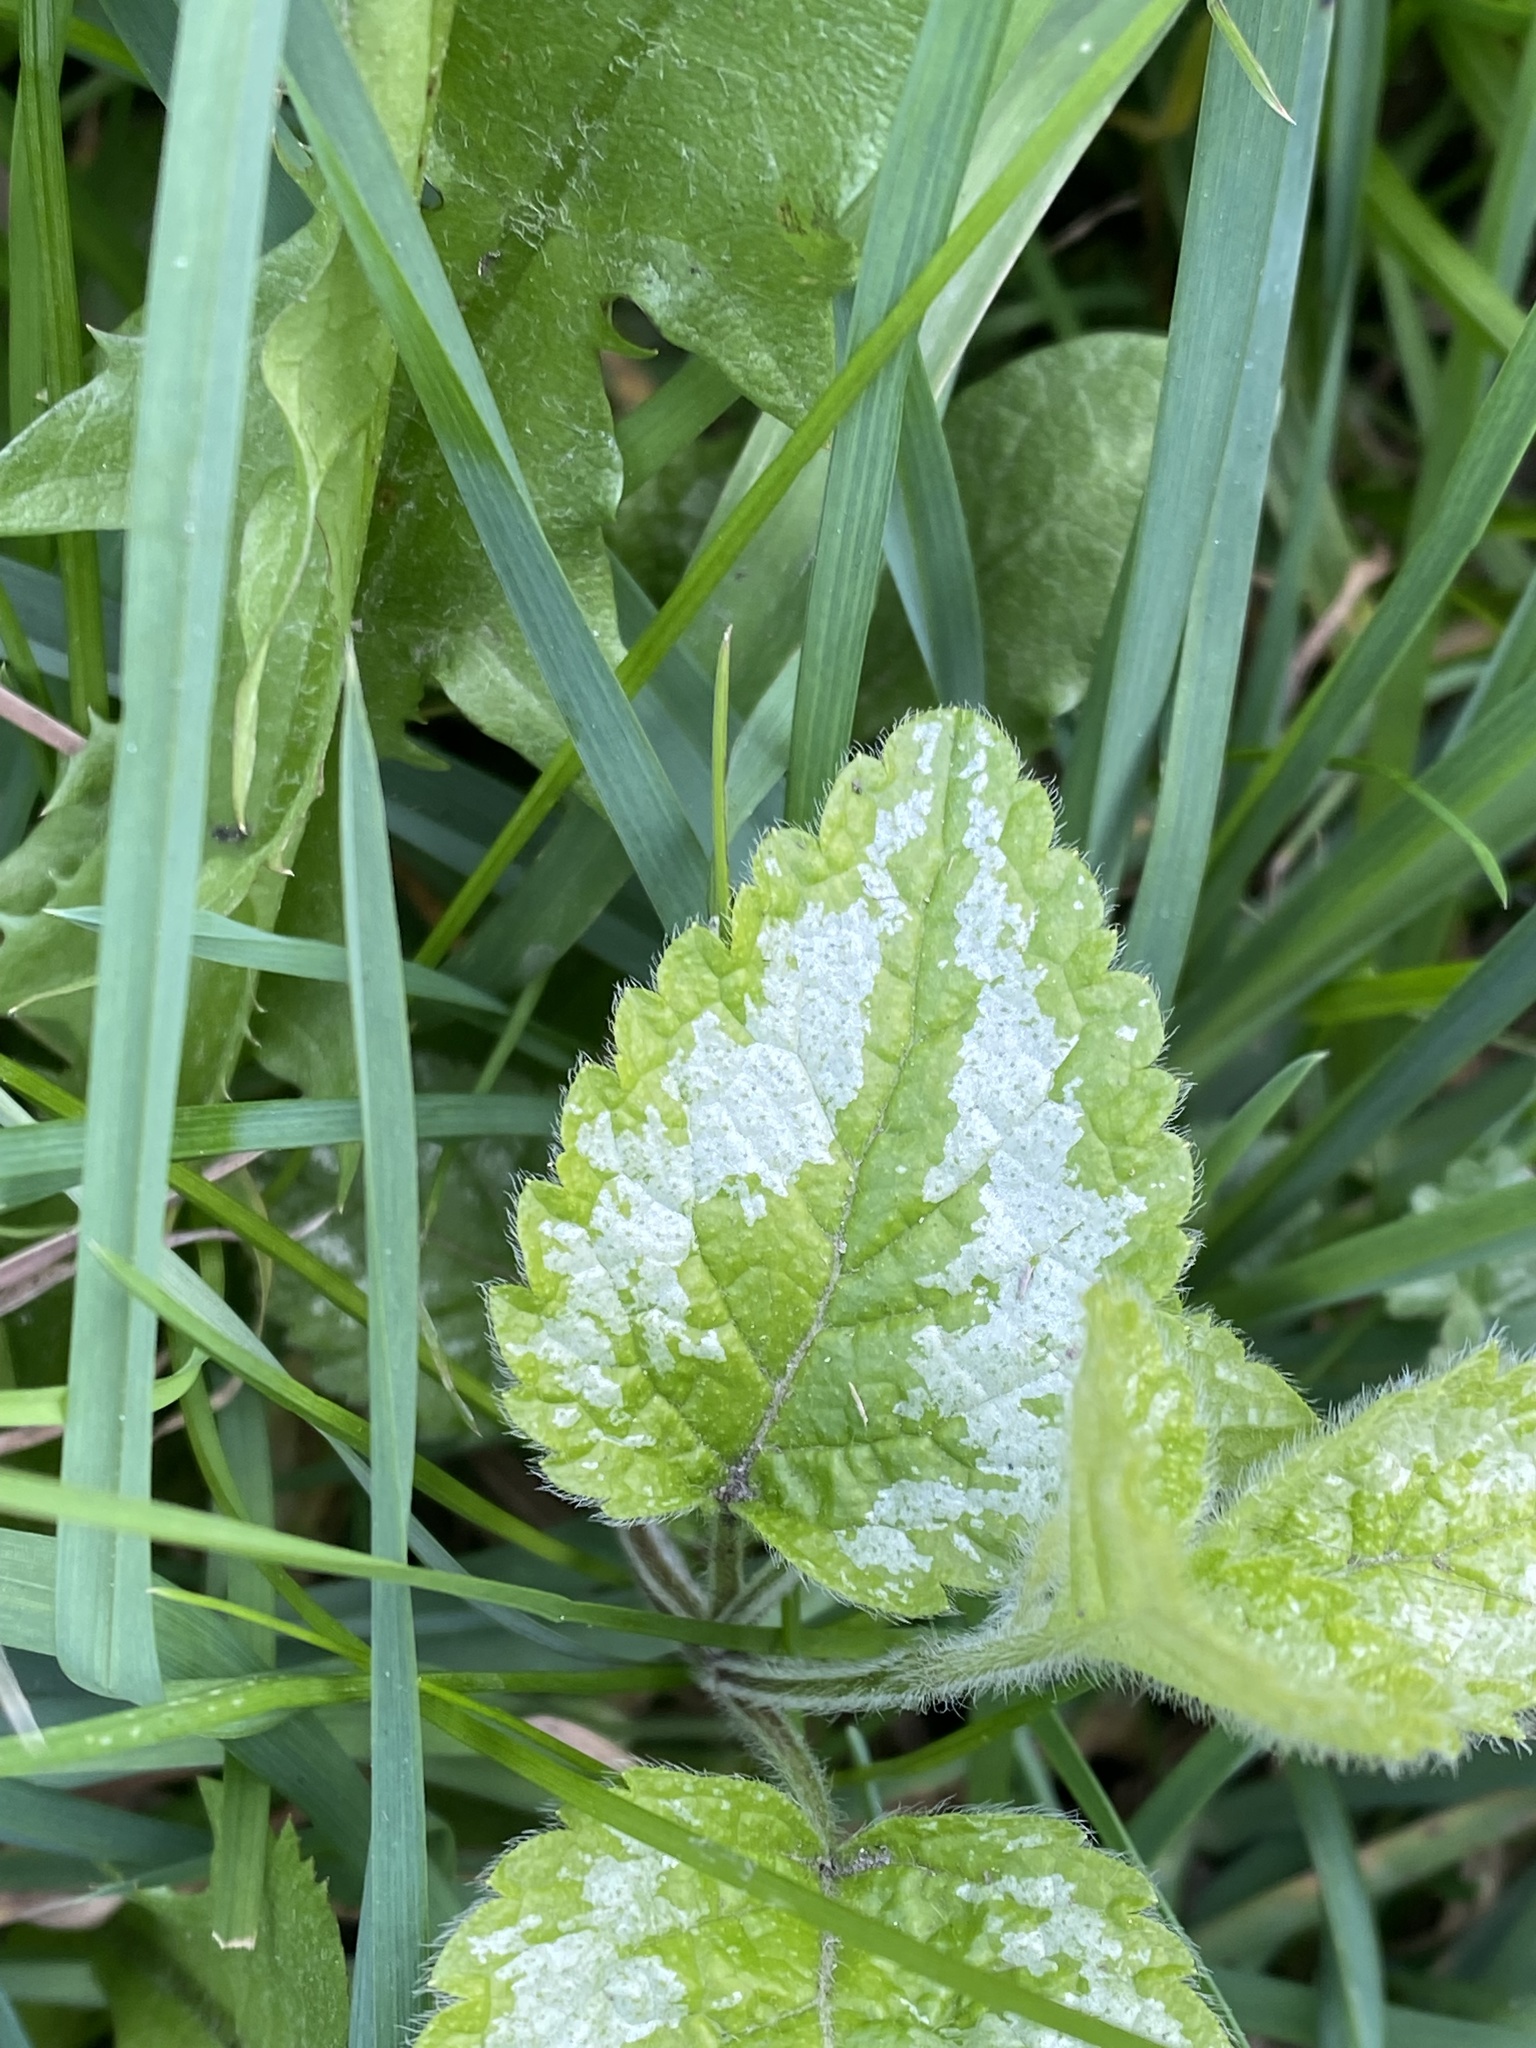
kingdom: Plantae
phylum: Tracheophyta
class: Magnoliopsida
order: Lamiales
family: Lamiaceae
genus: Lamium
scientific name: Lamium galeobdolon
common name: Yellow archangel
